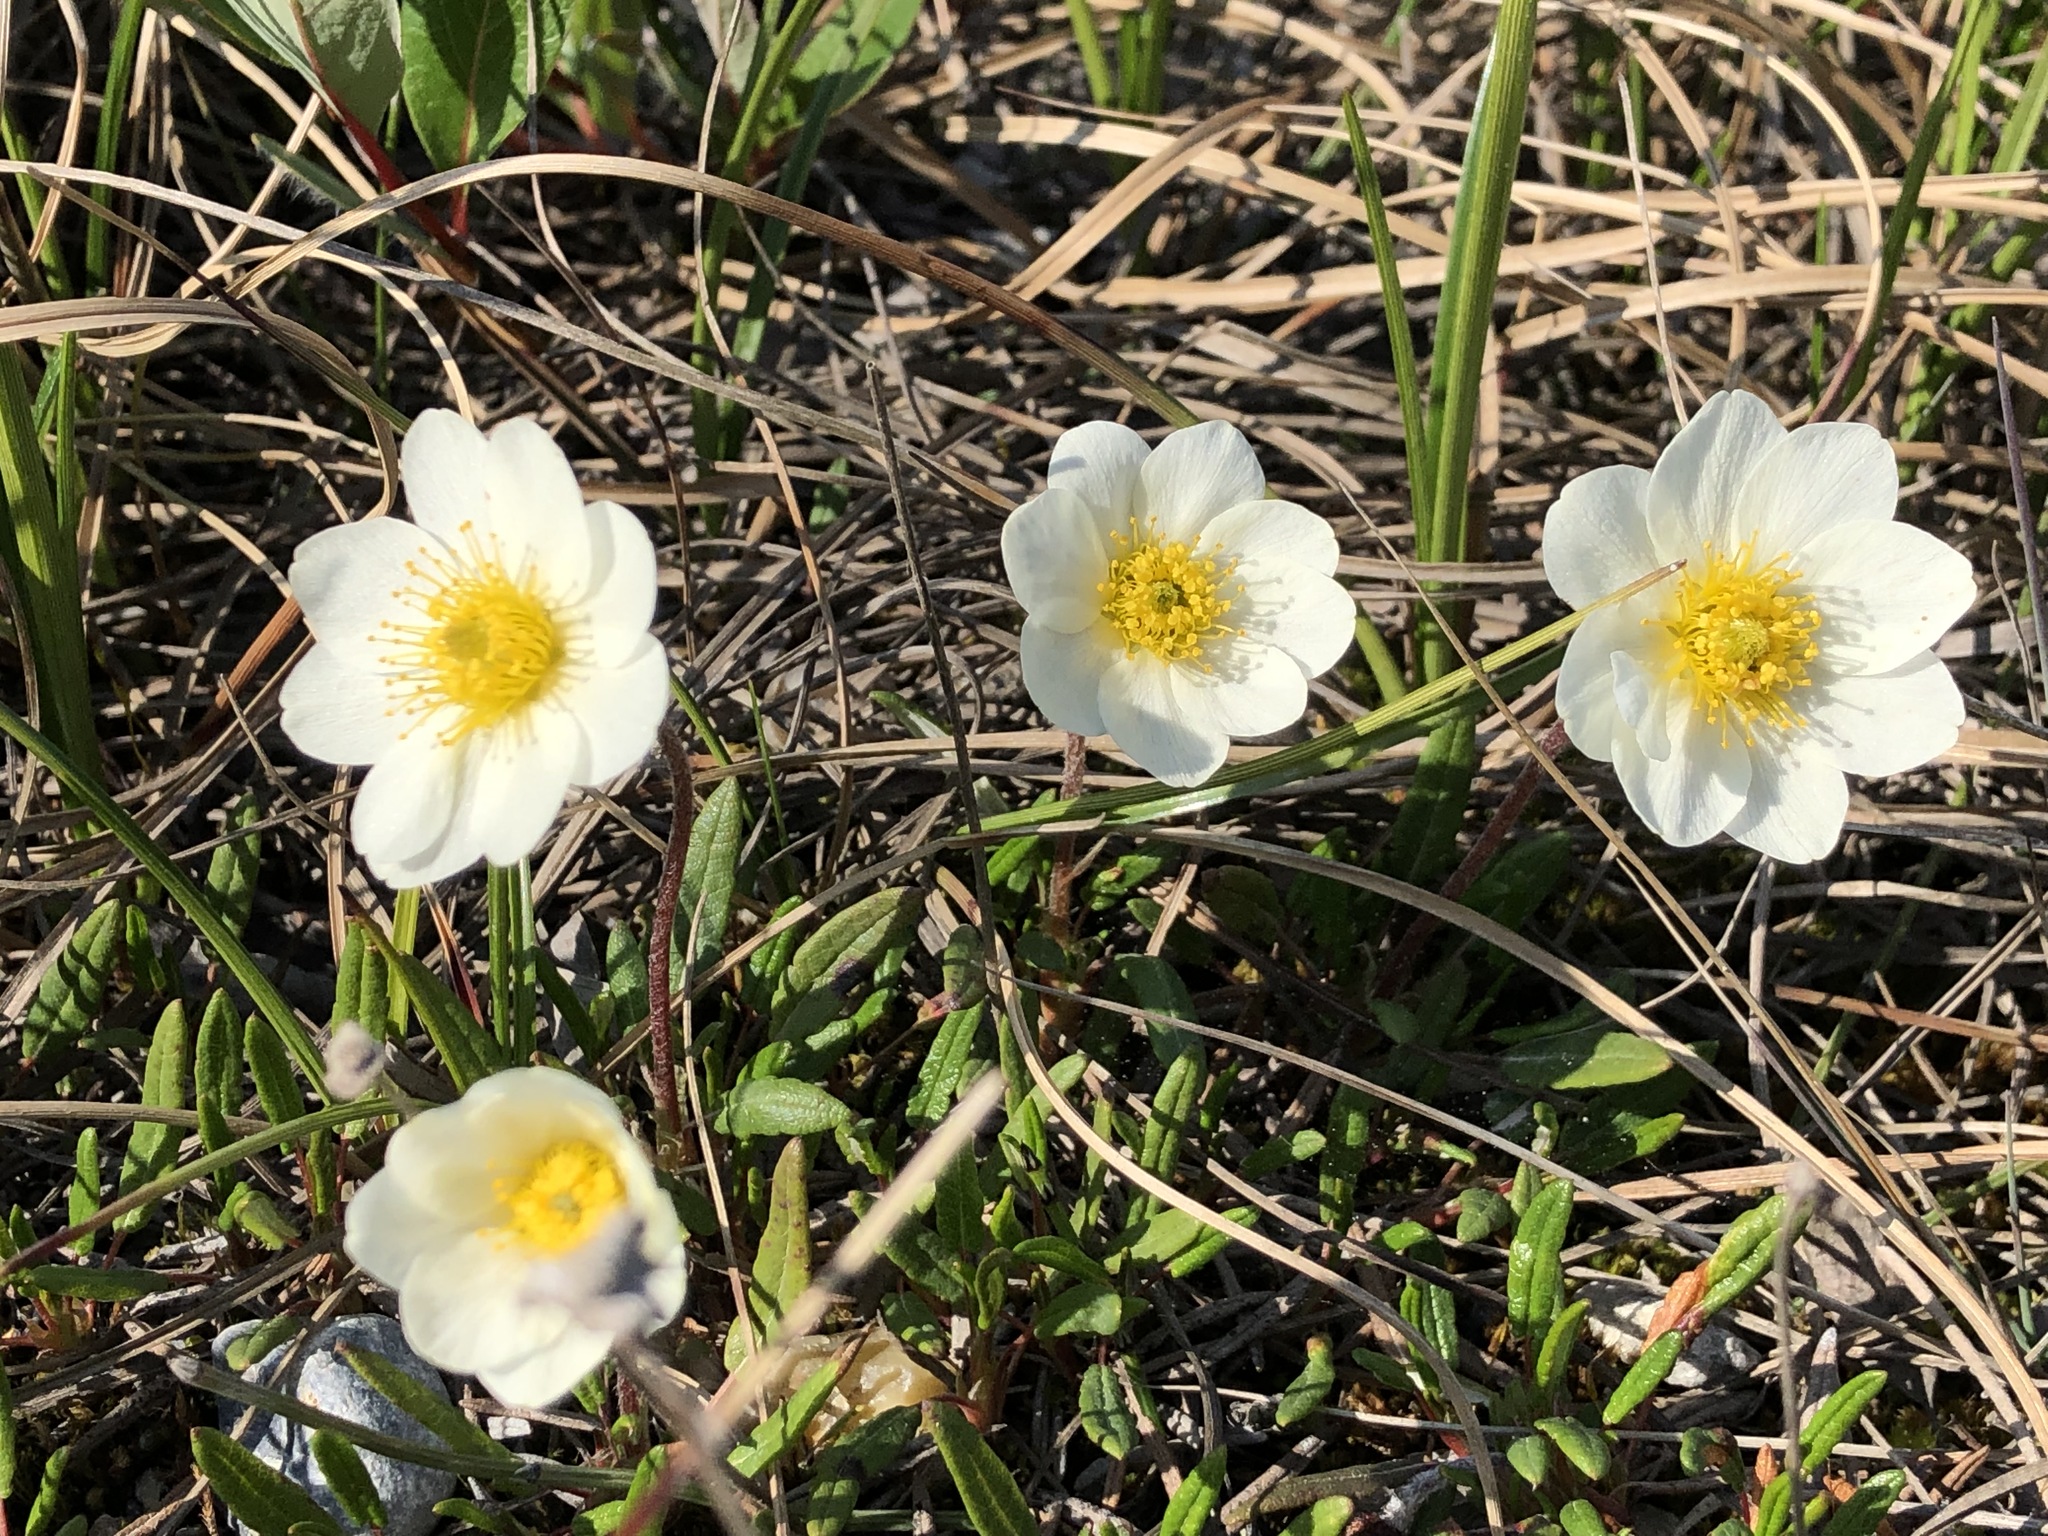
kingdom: Plantae
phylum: Tracheophyta
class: Magnoliopsida
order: Rosales
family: Rosaceae
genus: Dryas
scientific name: Dryas integrifolia
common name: Entire-leaved mountain avens
